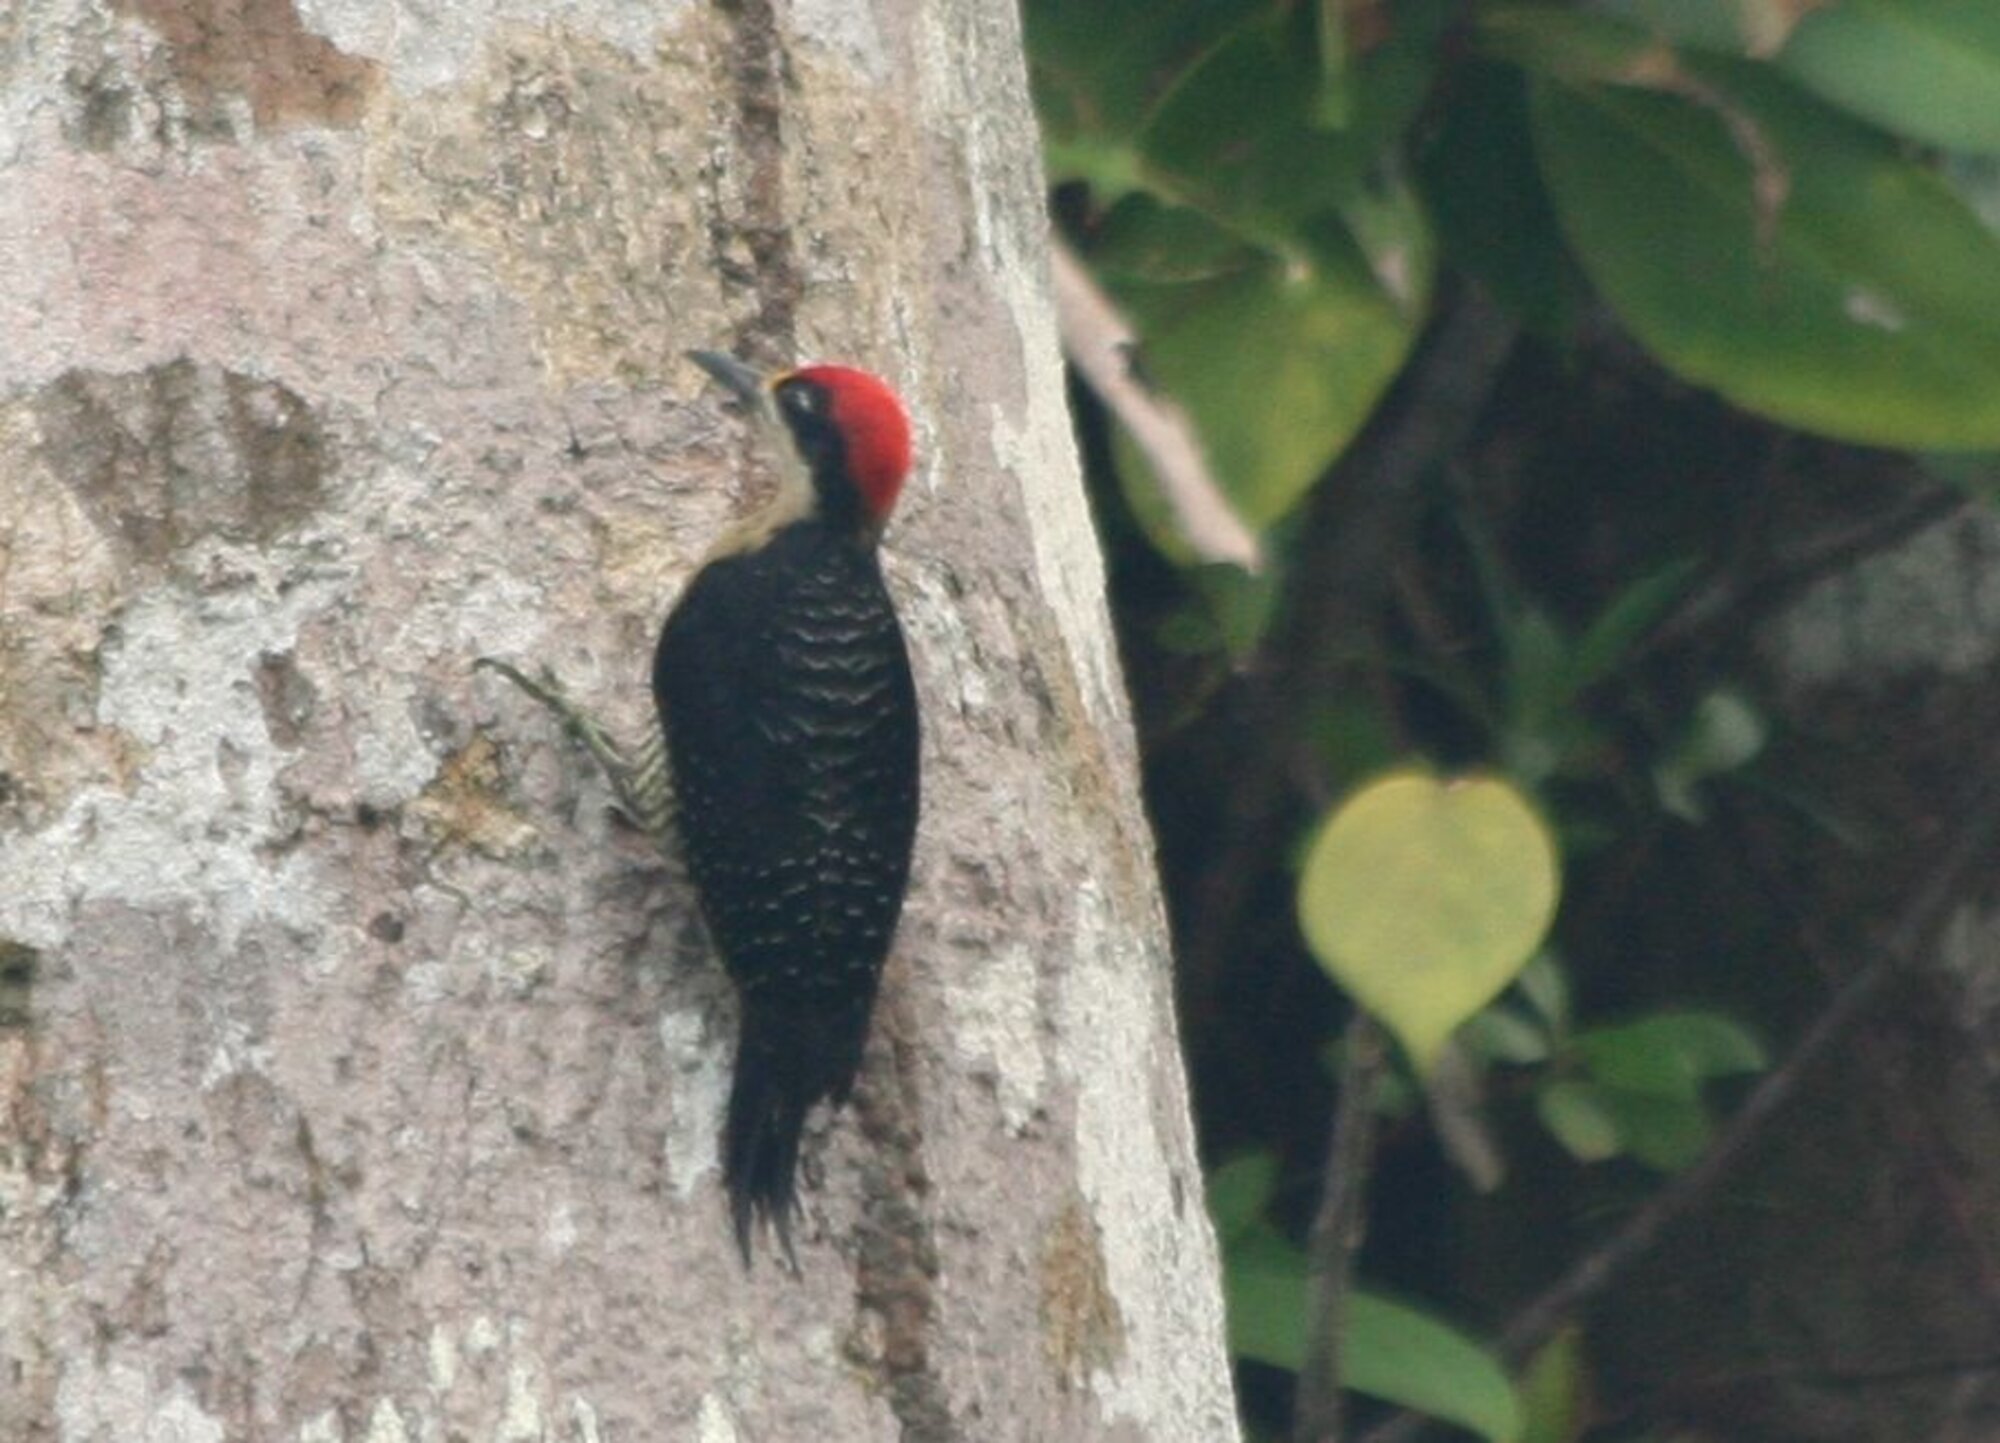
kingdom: Animalia
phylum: Chordata
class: Aves
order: Piciformes
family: Picidae
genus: Melanerpes
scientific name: Melanerpes pucherani
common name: Black-cheeked woodpecker
